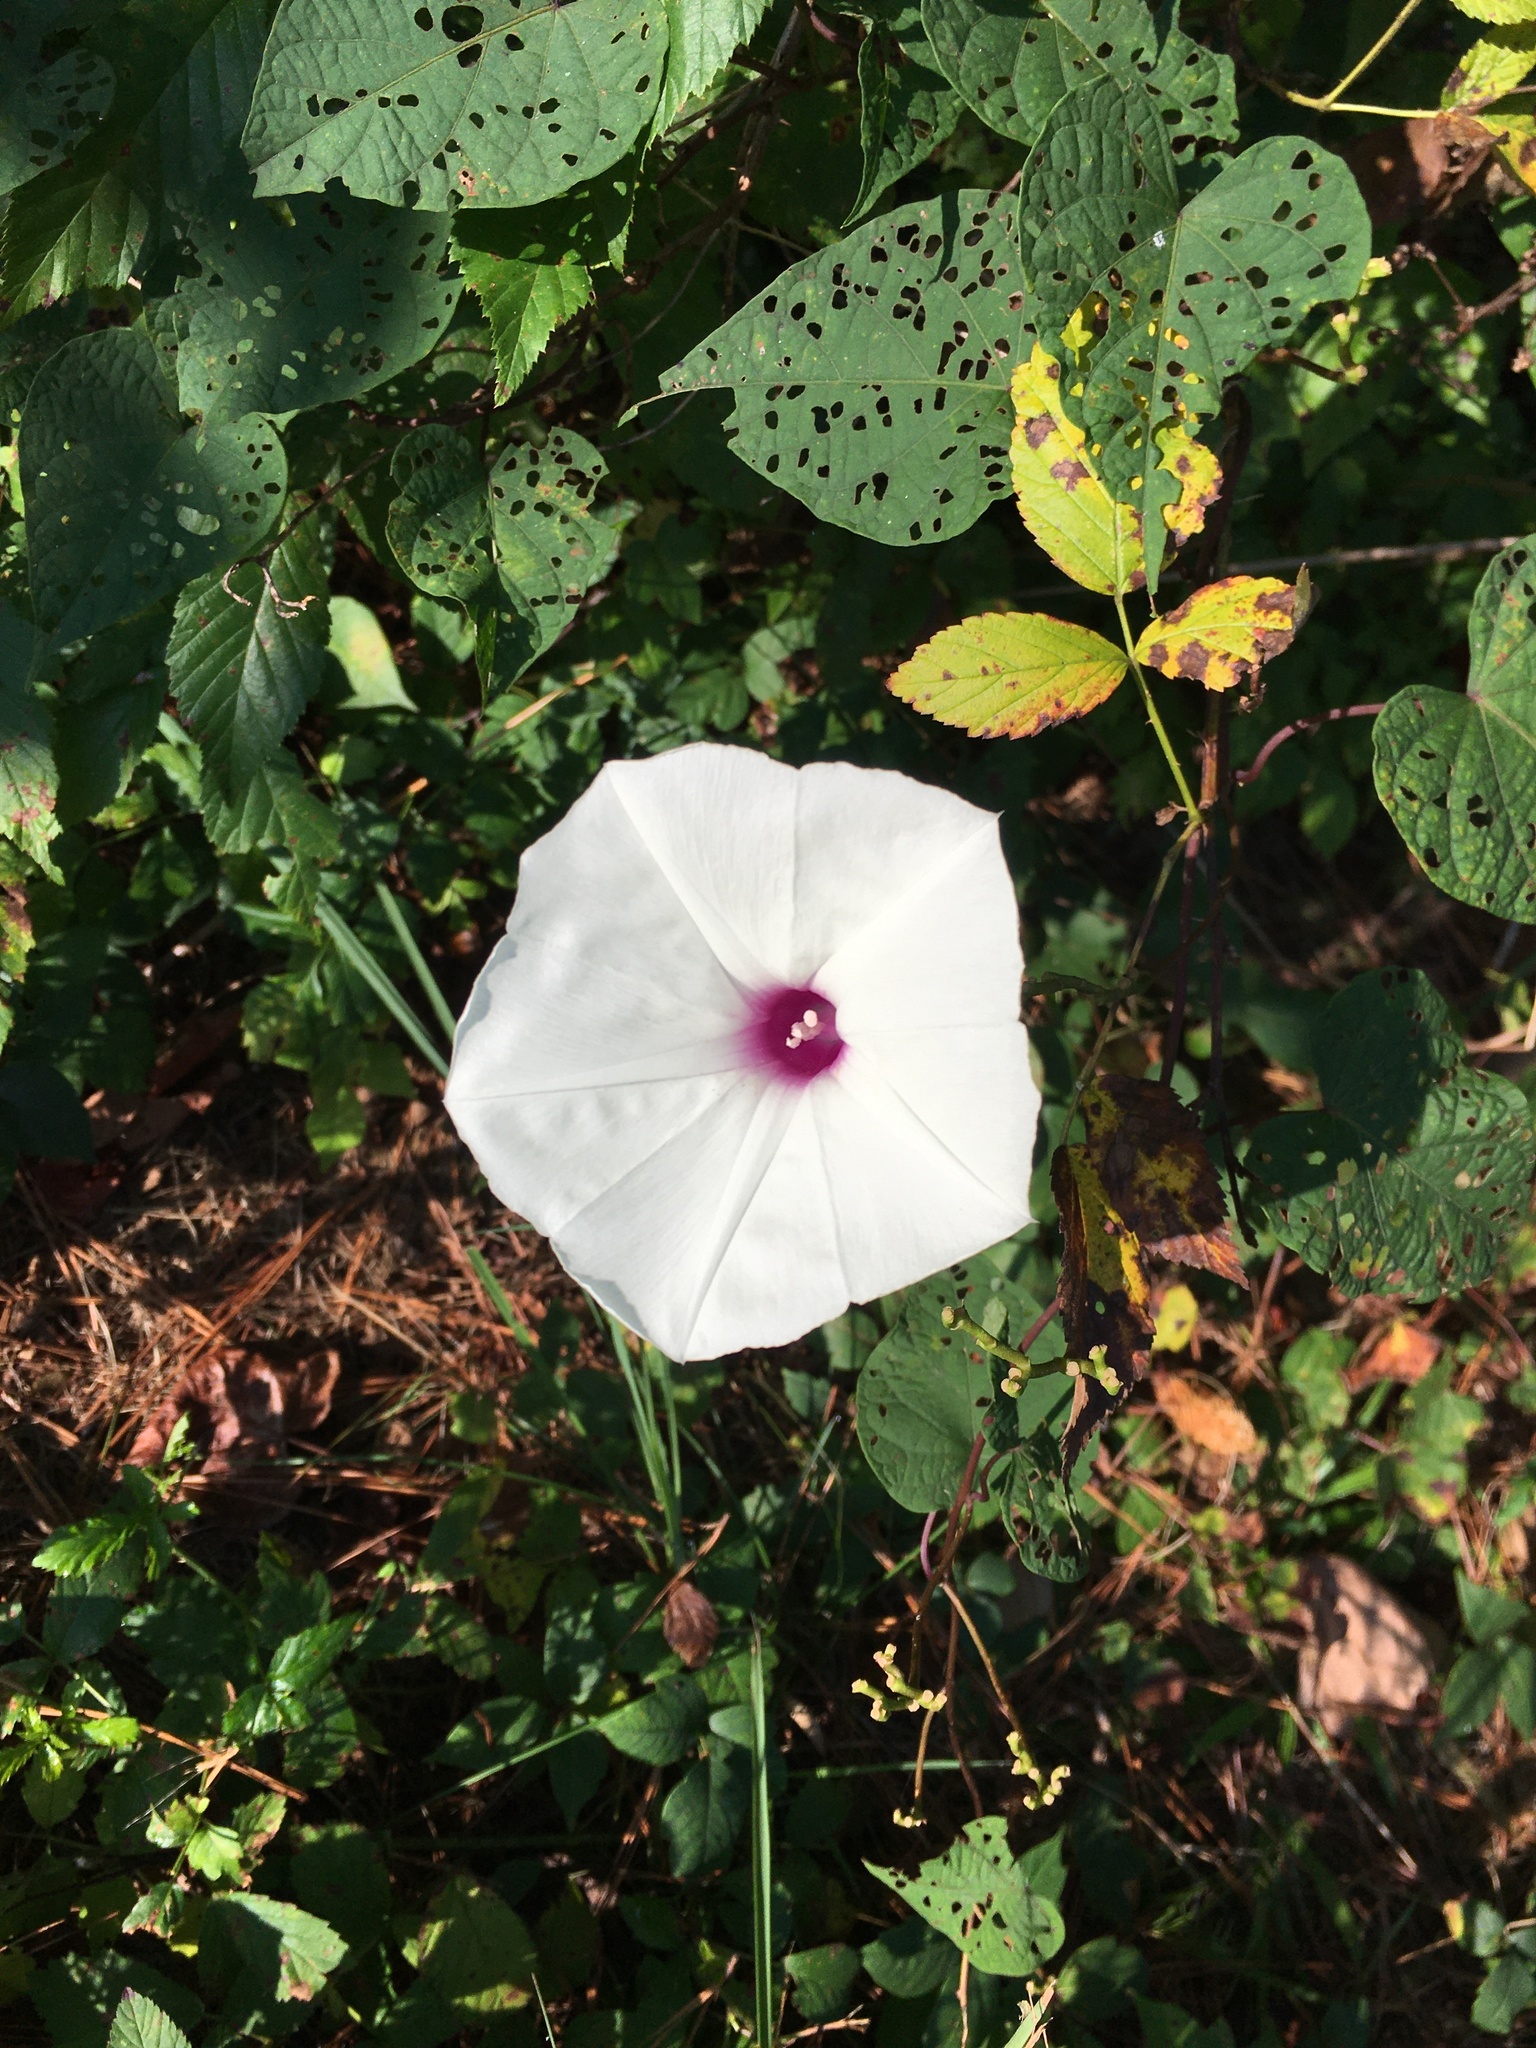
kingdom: Plantae
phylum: Tracheophyta
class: Magnoliopsida
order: Solanales
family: Convolvulaceae
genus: Ipomoea
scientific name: Ipomoea pandurata
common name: Man-of-the-earth
